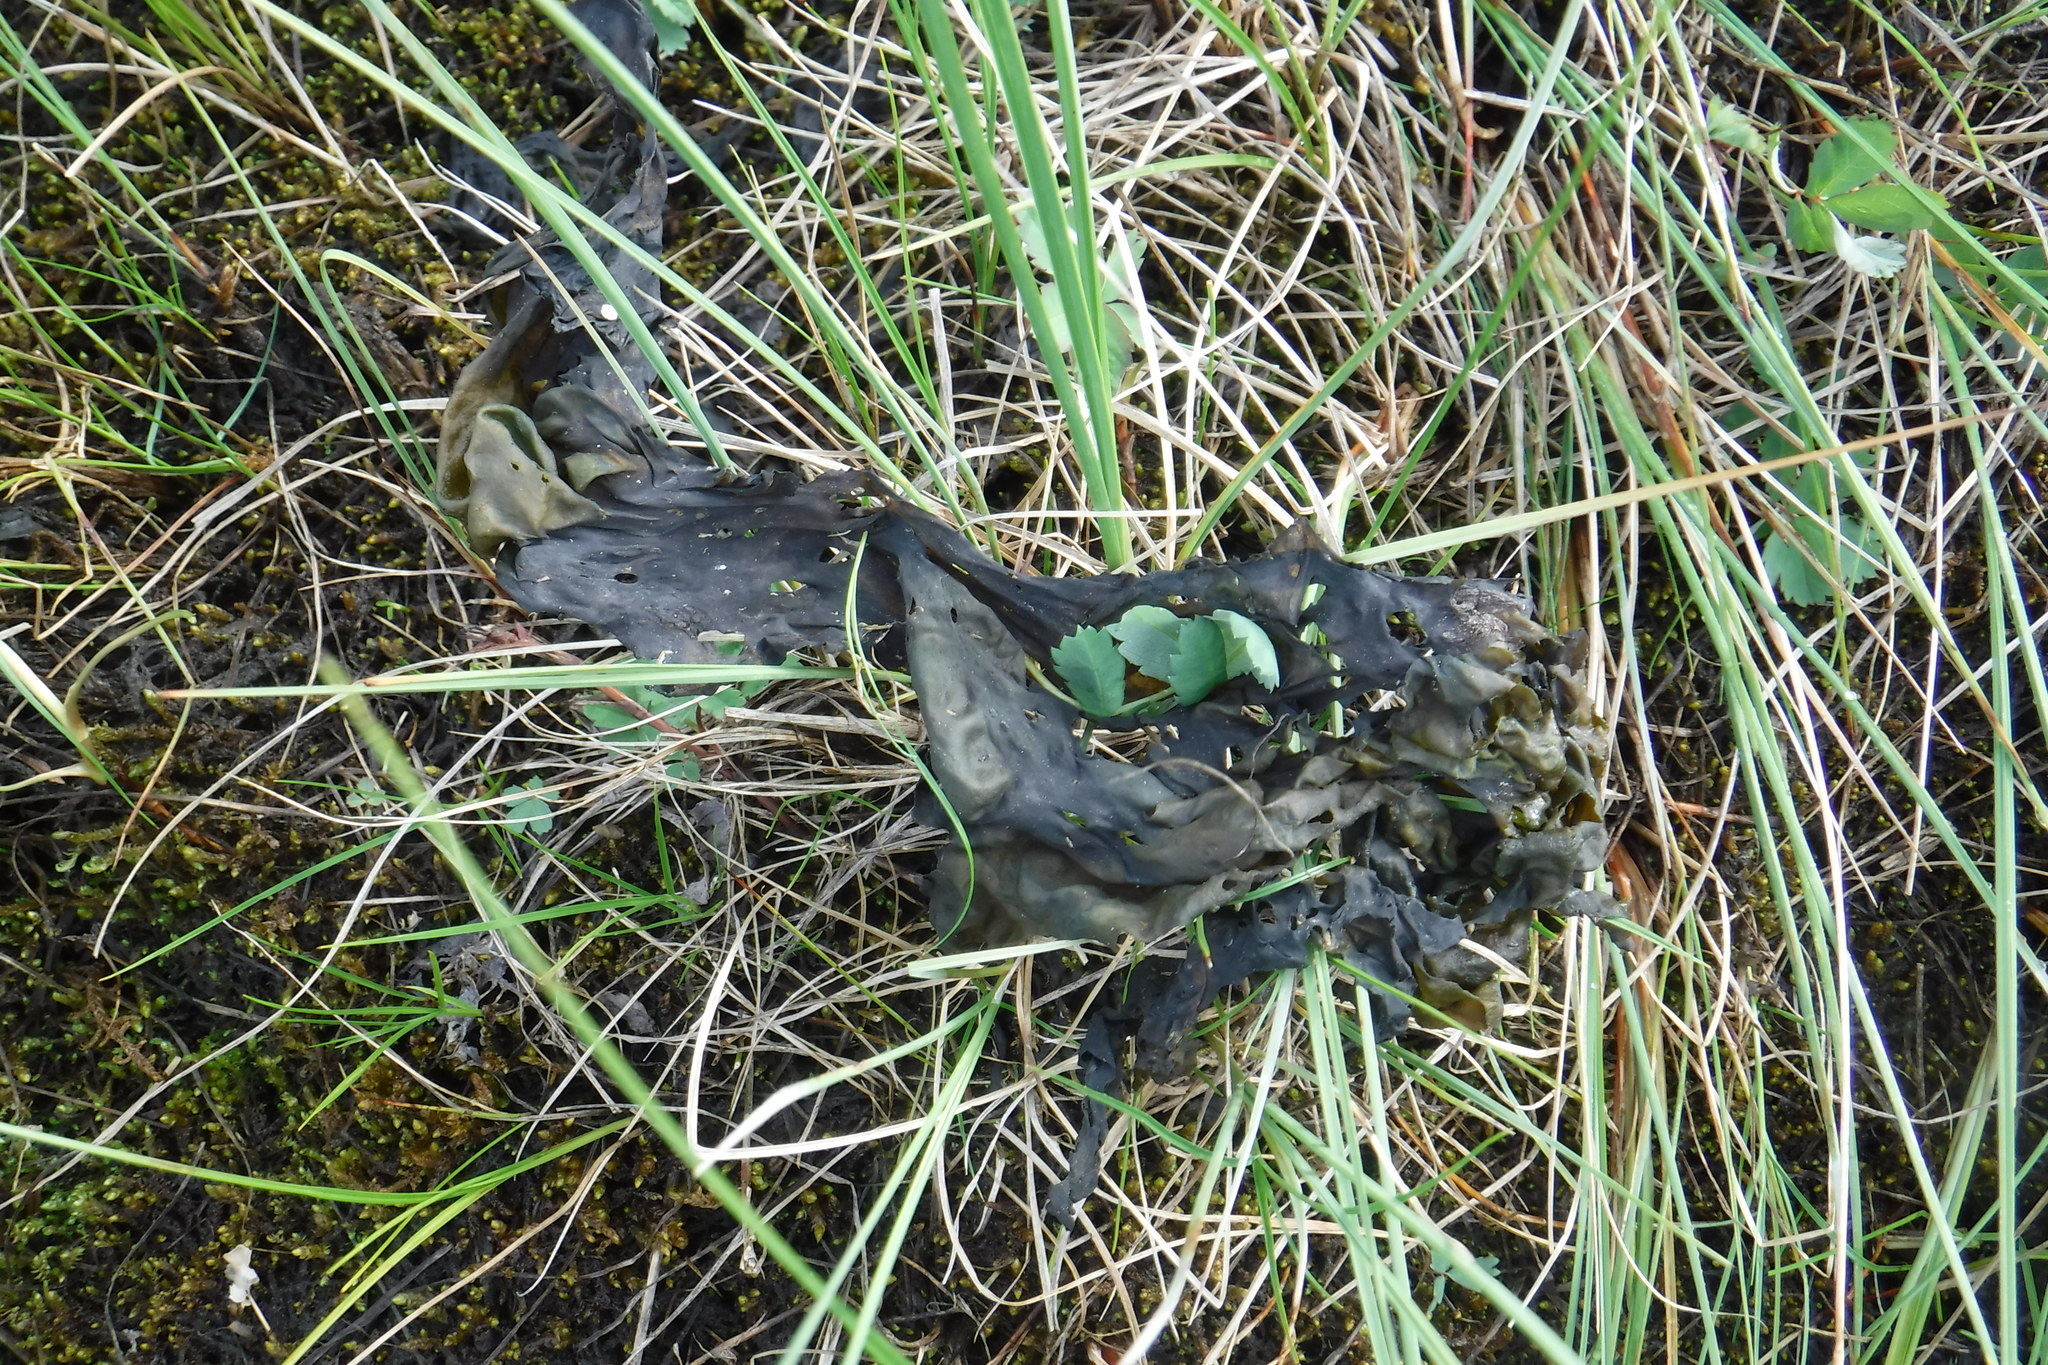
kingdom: Bacteria
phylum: Cyanobacteria
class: Cyanobacteriia
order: Cyanobacteriales
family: Nostocaceae
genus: Nostoc
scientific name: Nostoc commune
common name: Star jelly
